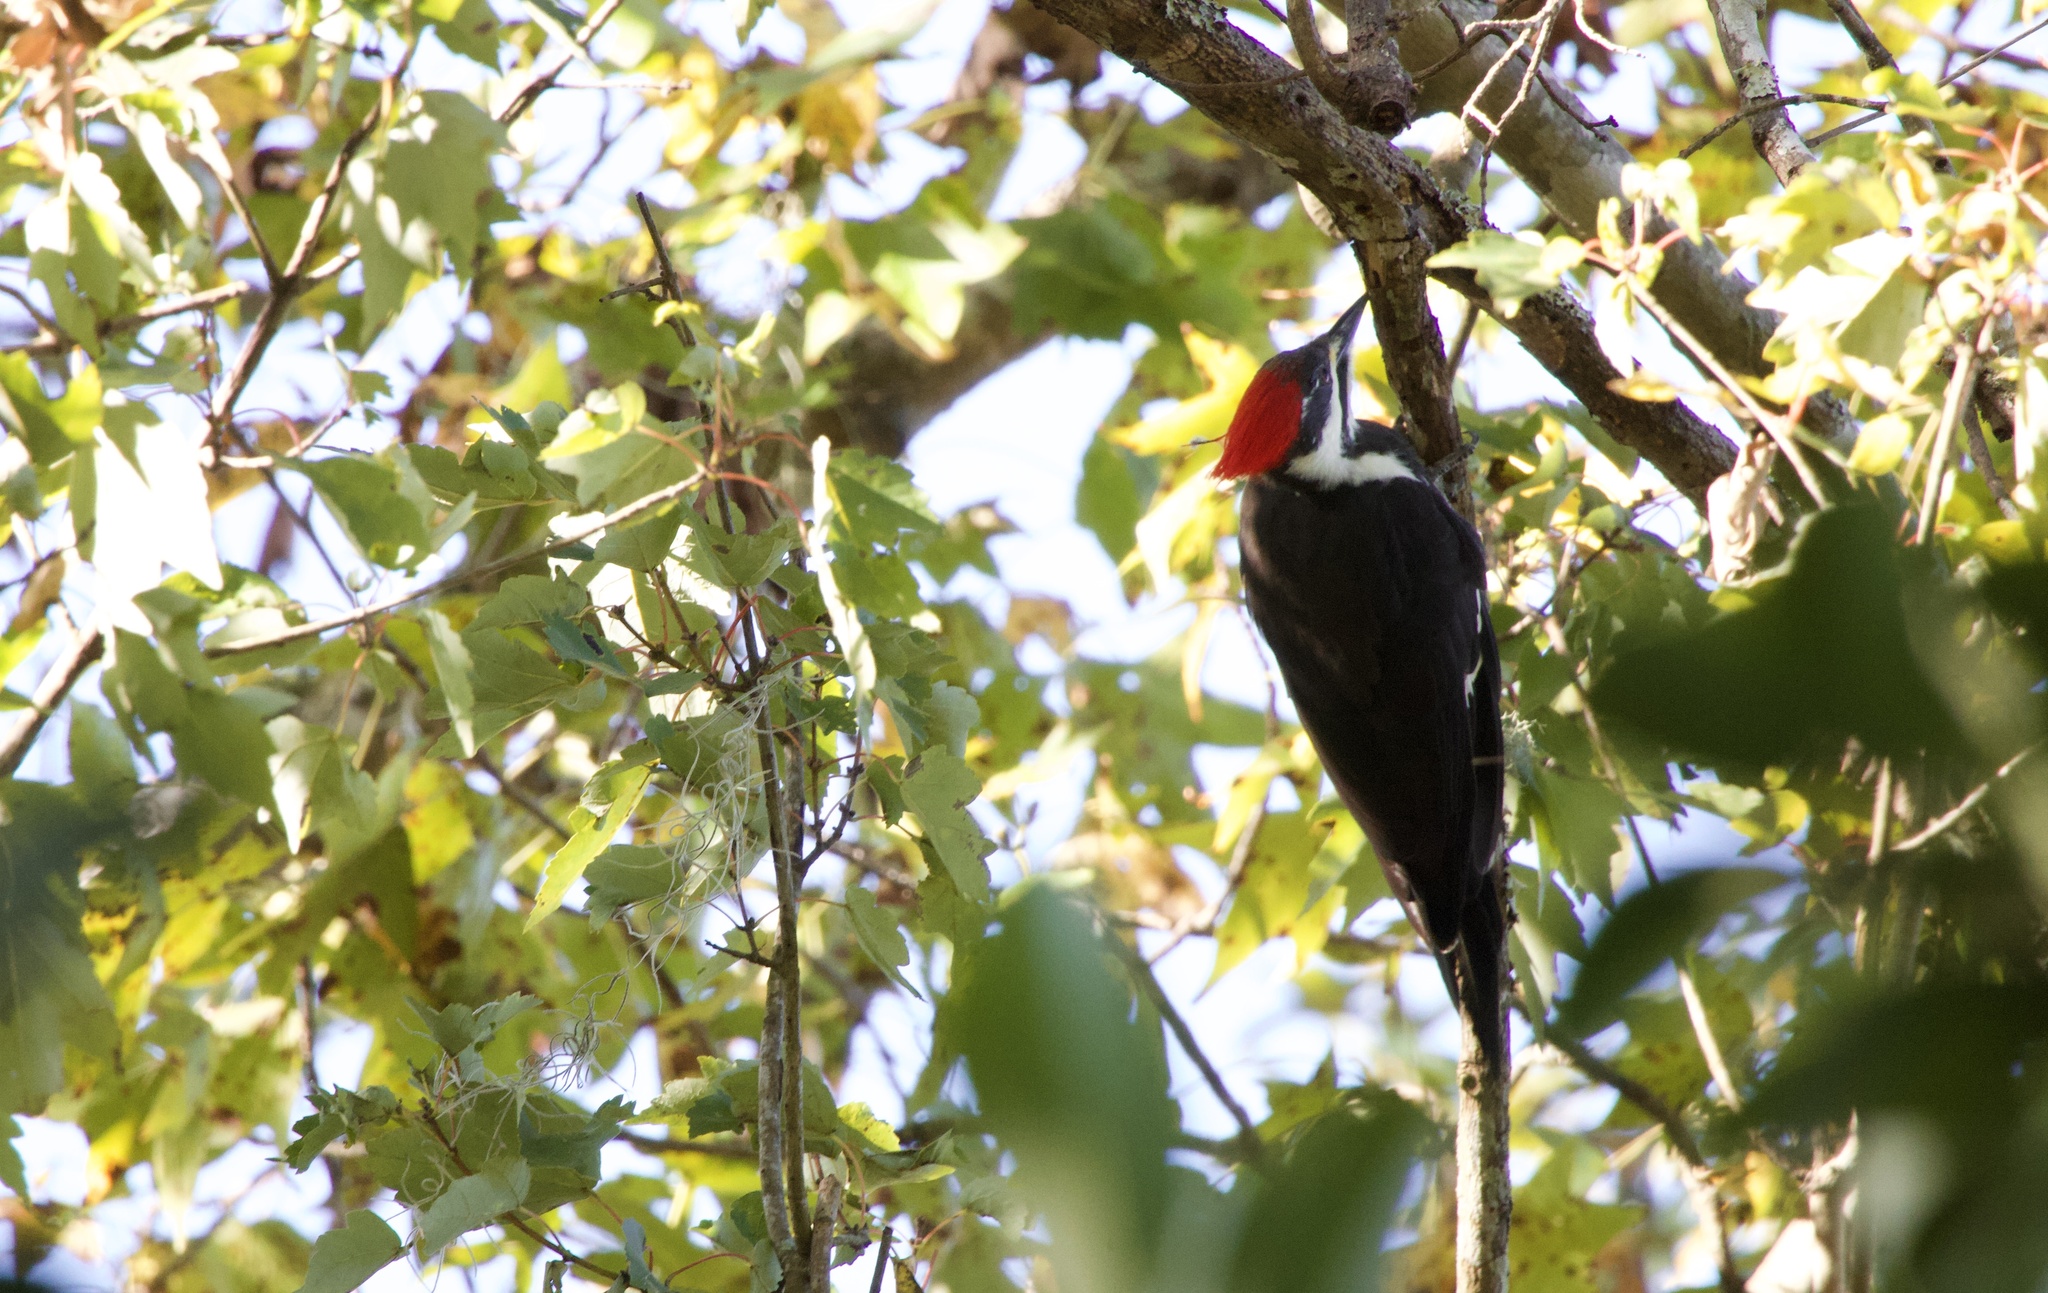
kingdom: Animalia
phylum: Chordata
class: Aves
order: Piciformes
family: Picidae
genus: Dryocopus
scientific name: Dryocopus pileatus
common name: Pileated woodpecker
